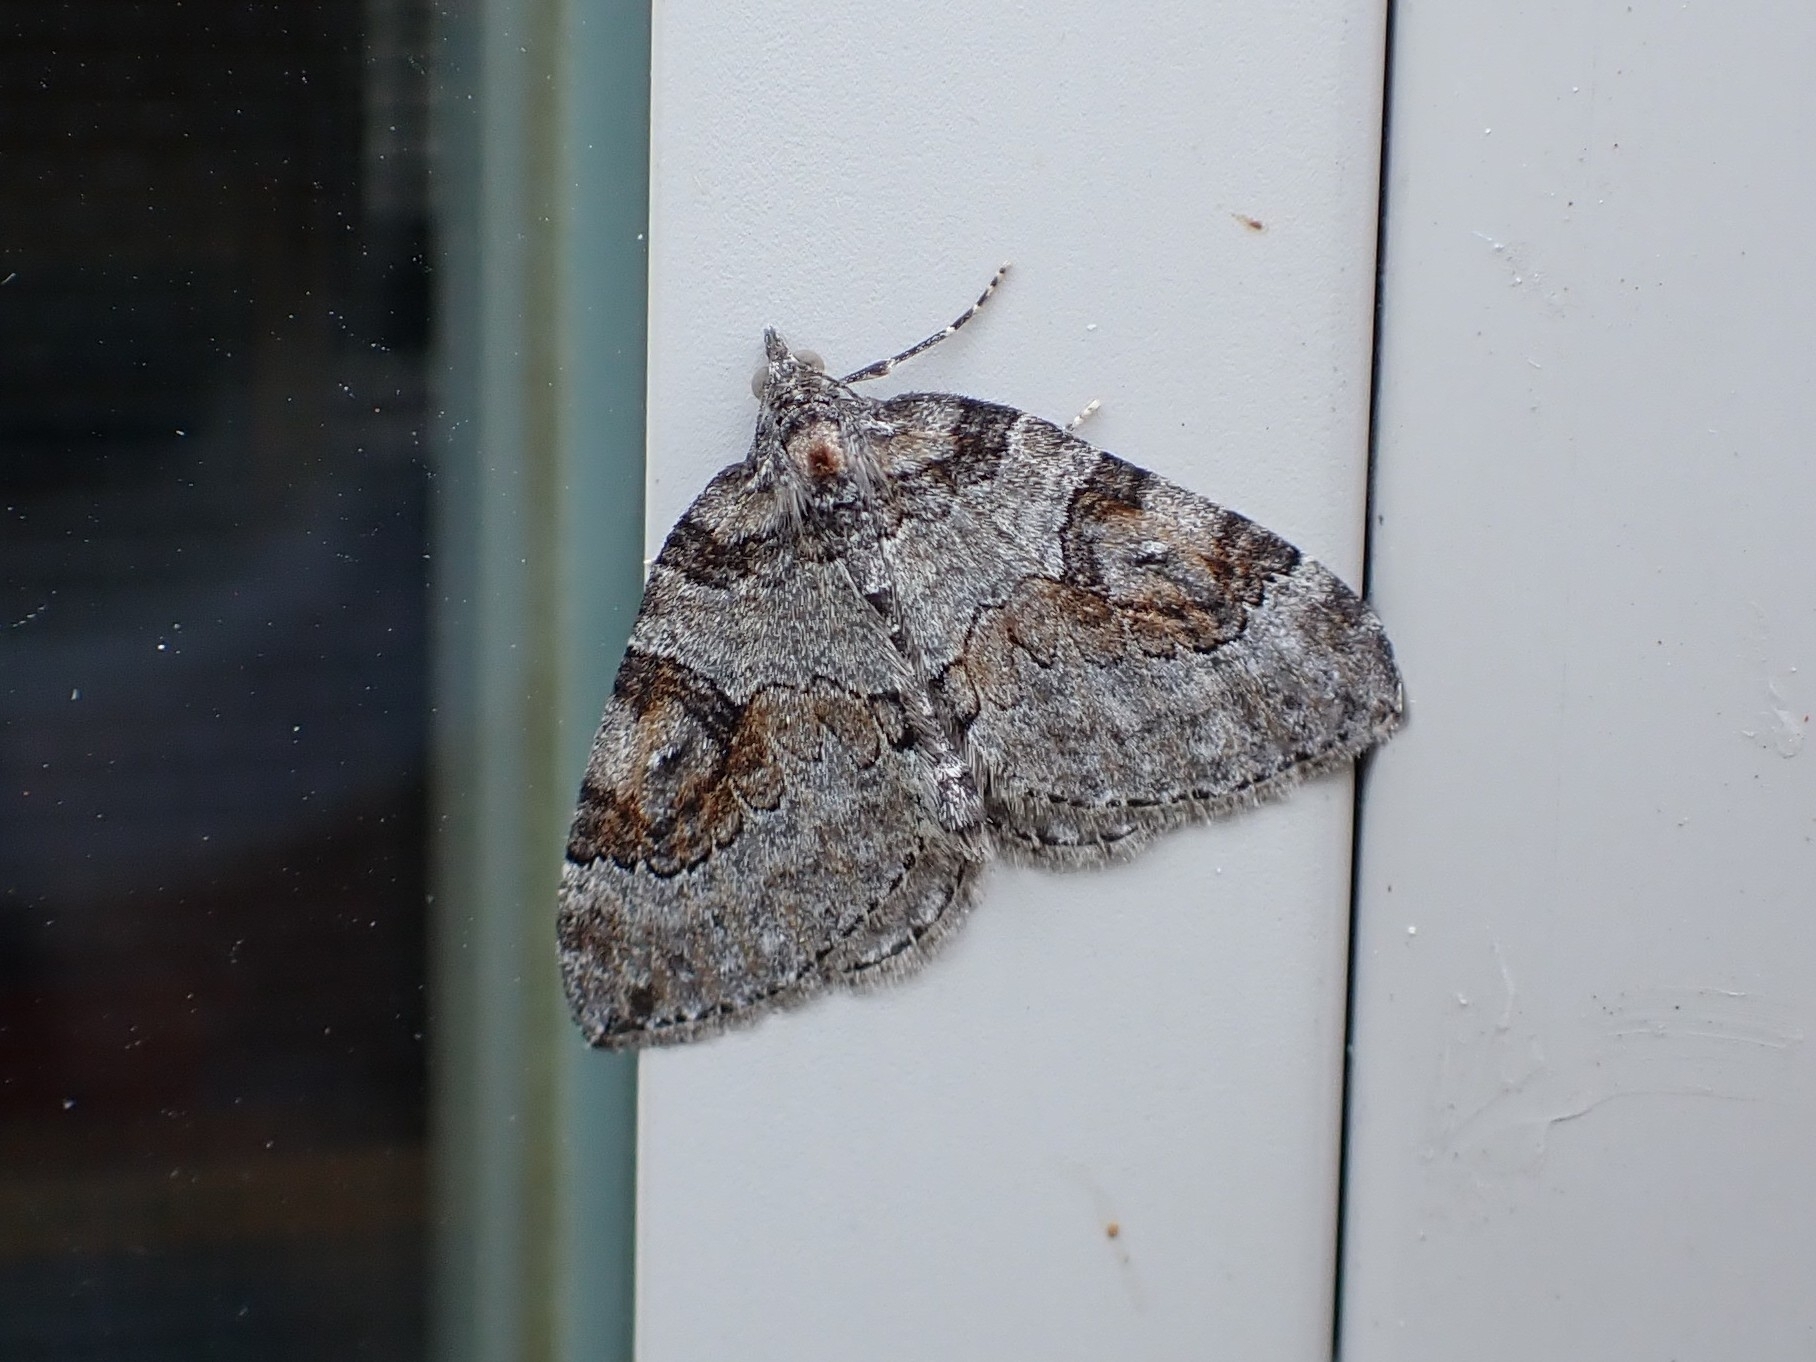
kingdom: Animalia
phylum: Arthropoda
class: Insecta
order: Lepidoptera
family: Geometridae
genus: Plemyria
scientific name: Plemyria georgii
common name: George's carpet moth
